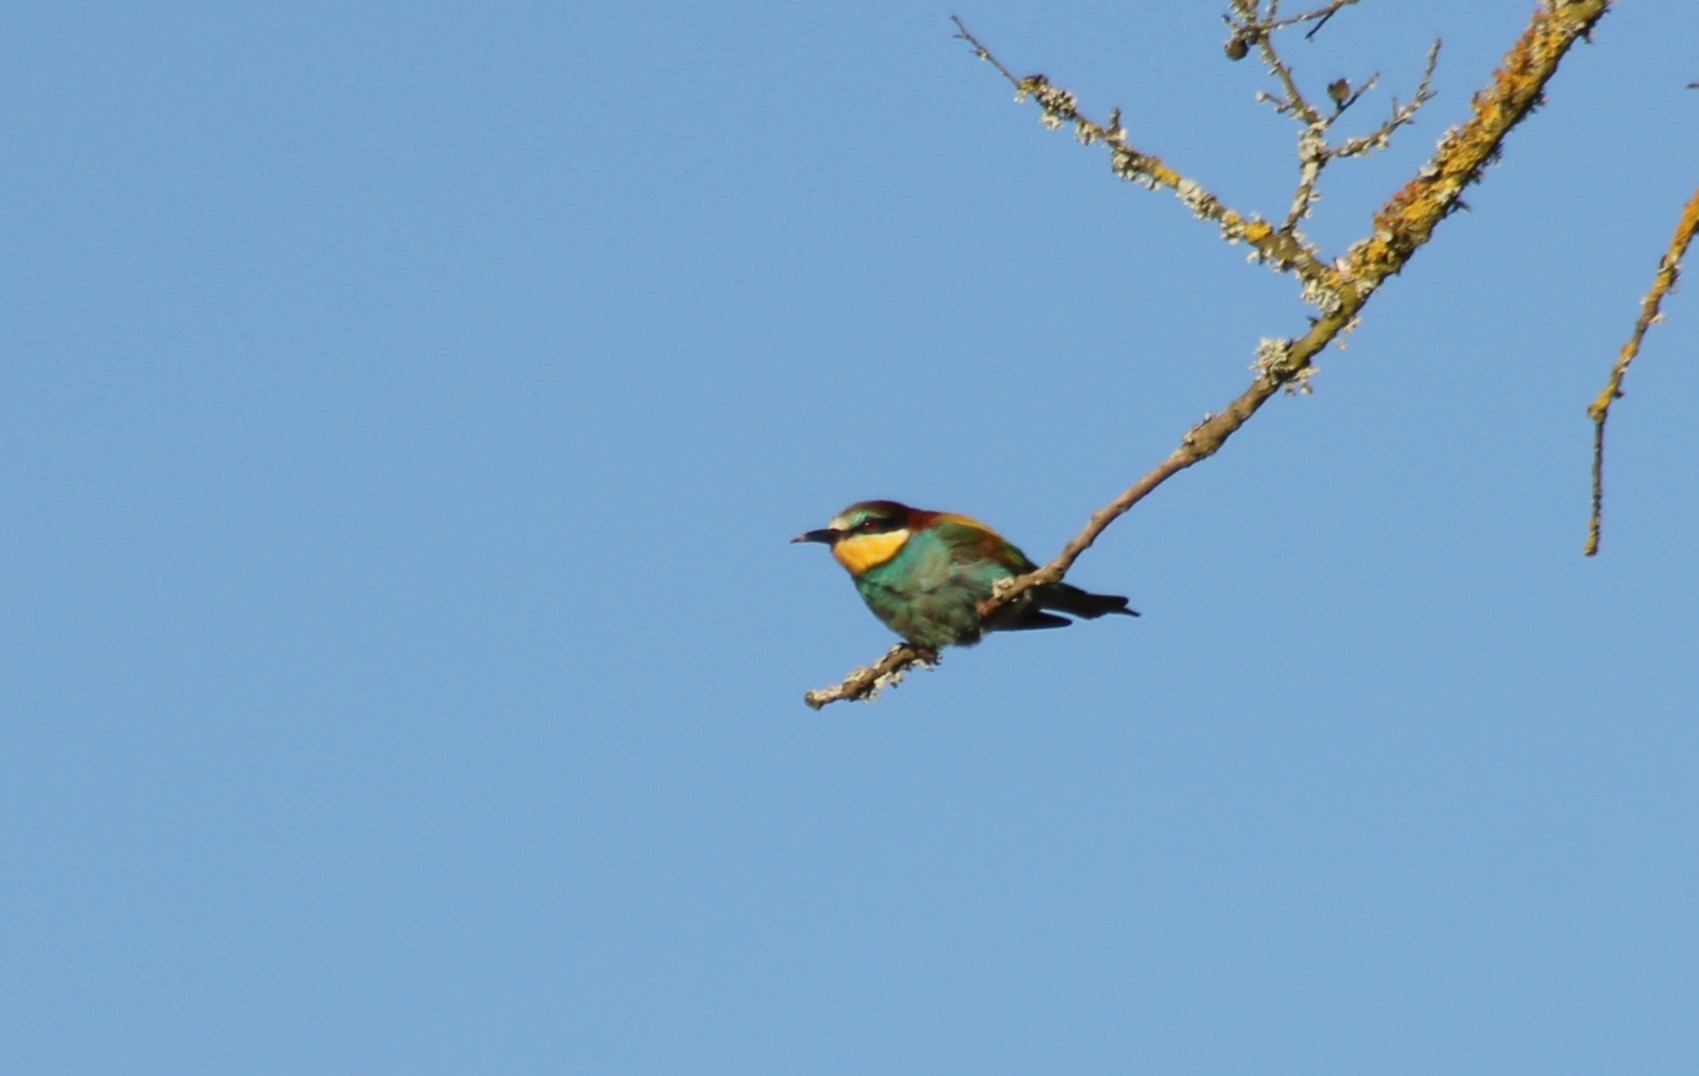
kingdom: Animalia
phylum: Chordata
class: Aves
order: Coraciiformes
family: Meropidae
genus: Merops
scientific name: Merops apiaster
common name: European bee-eater
